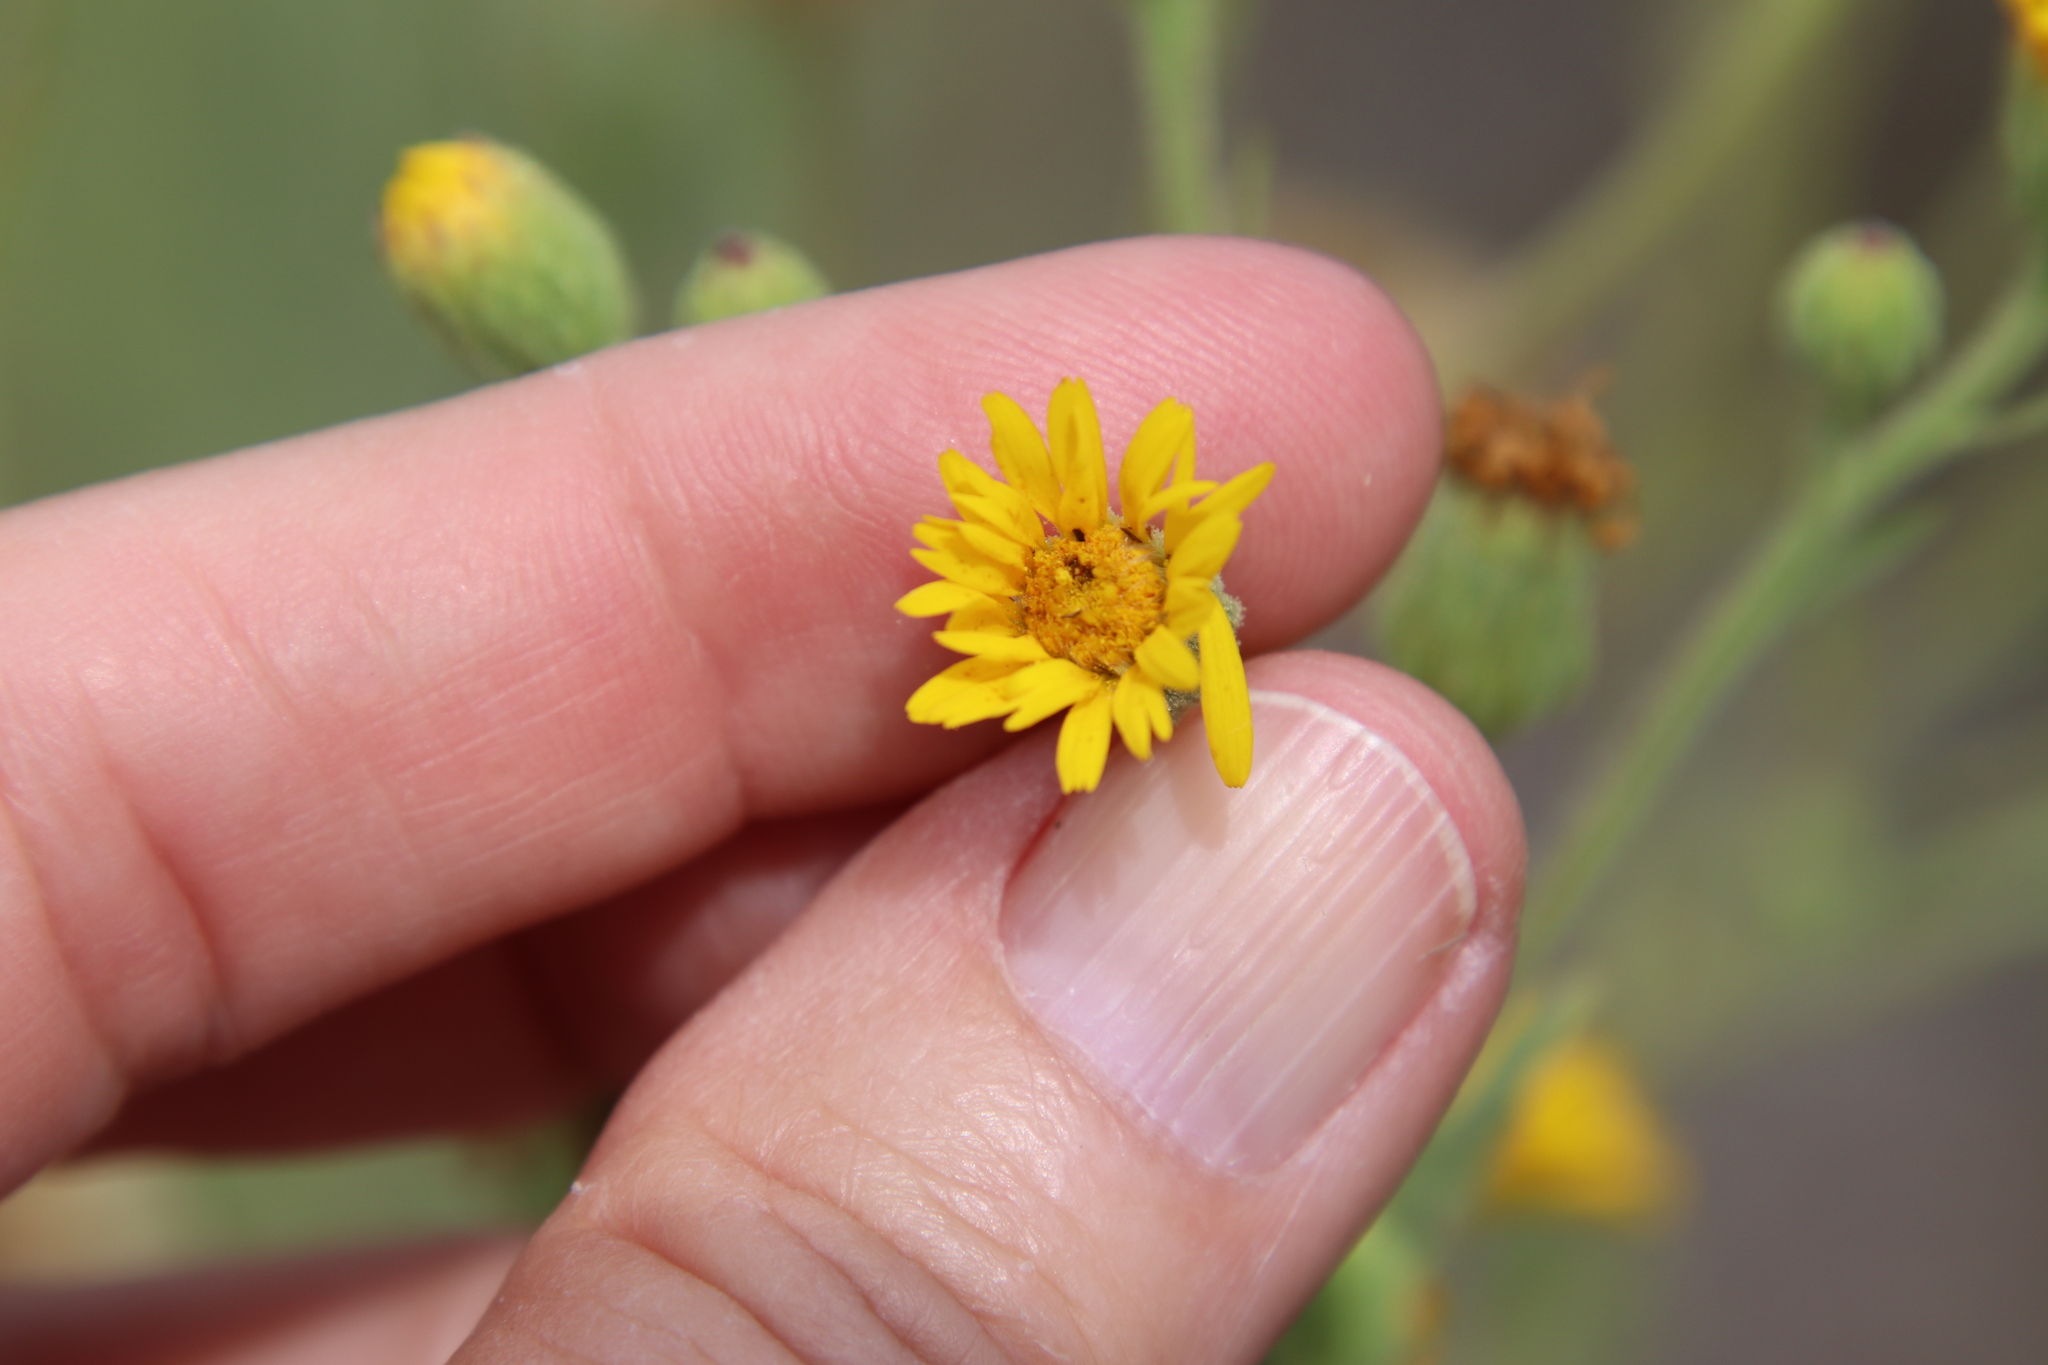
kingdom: Plantae
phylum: Tracheophyta
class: Magnoliopsida
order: Asterales
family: Asteraceae
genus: Heterotheca
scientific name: Heterotheca grandiflora
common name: Telegraphweed
